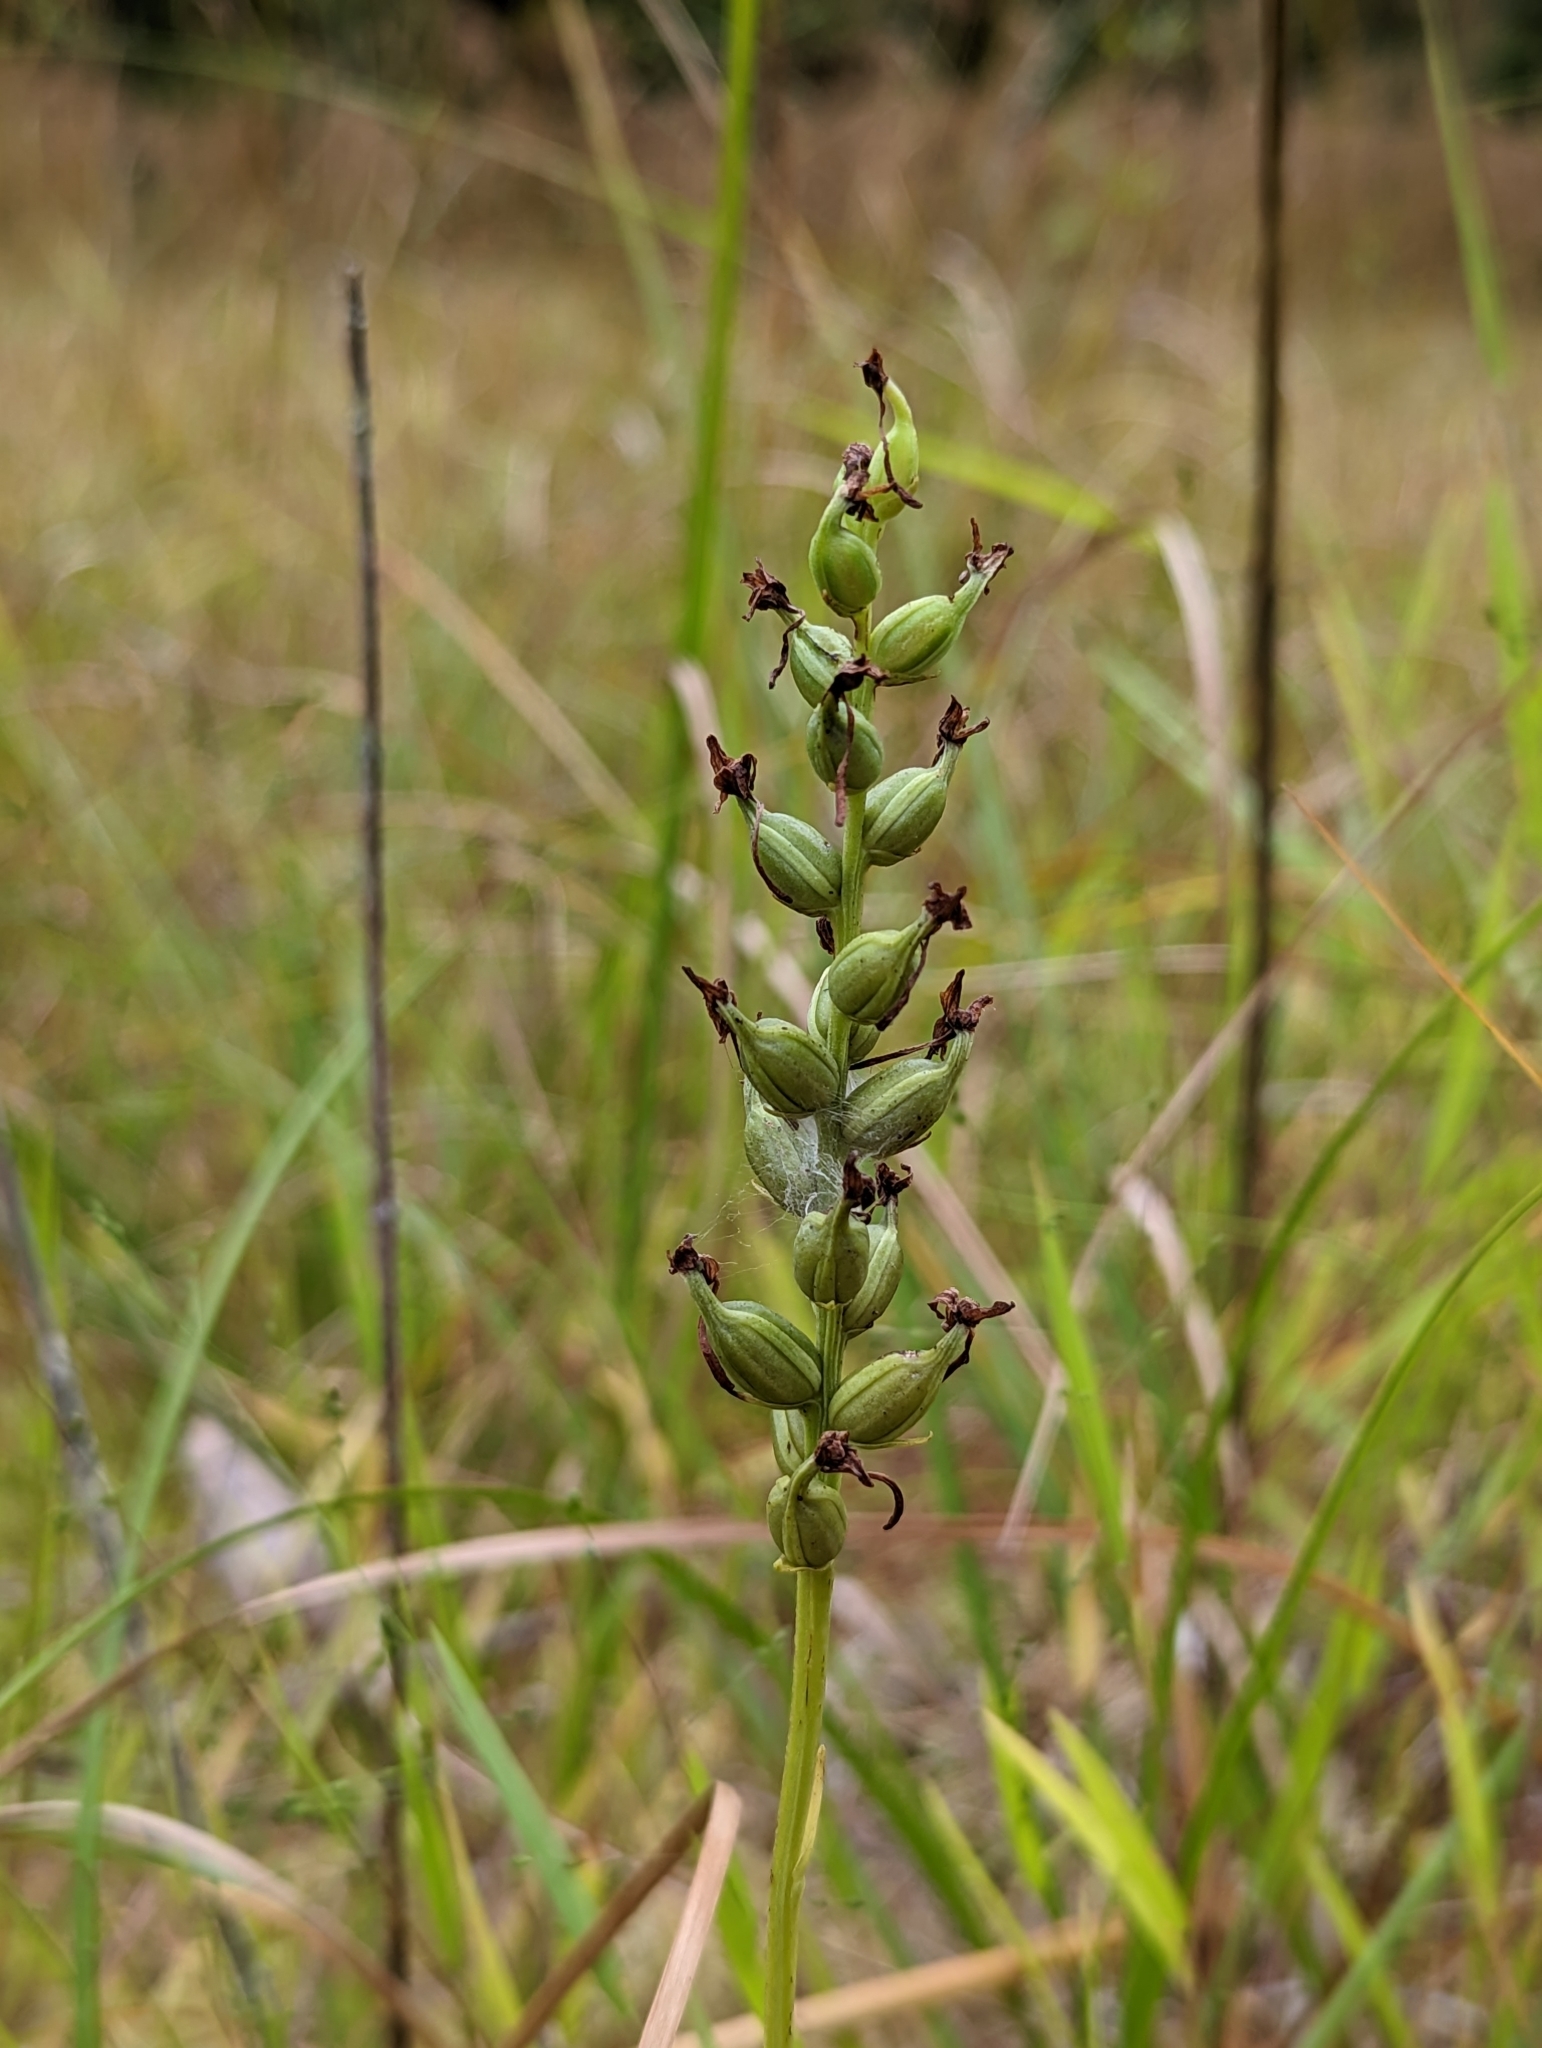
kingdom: Plantae
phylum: Tracheophyta
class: Liliopsida
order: Asparagales
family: Orchidaceae
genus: Platanthera
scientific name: Platanthera clavellata
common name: Club-spur orchid
